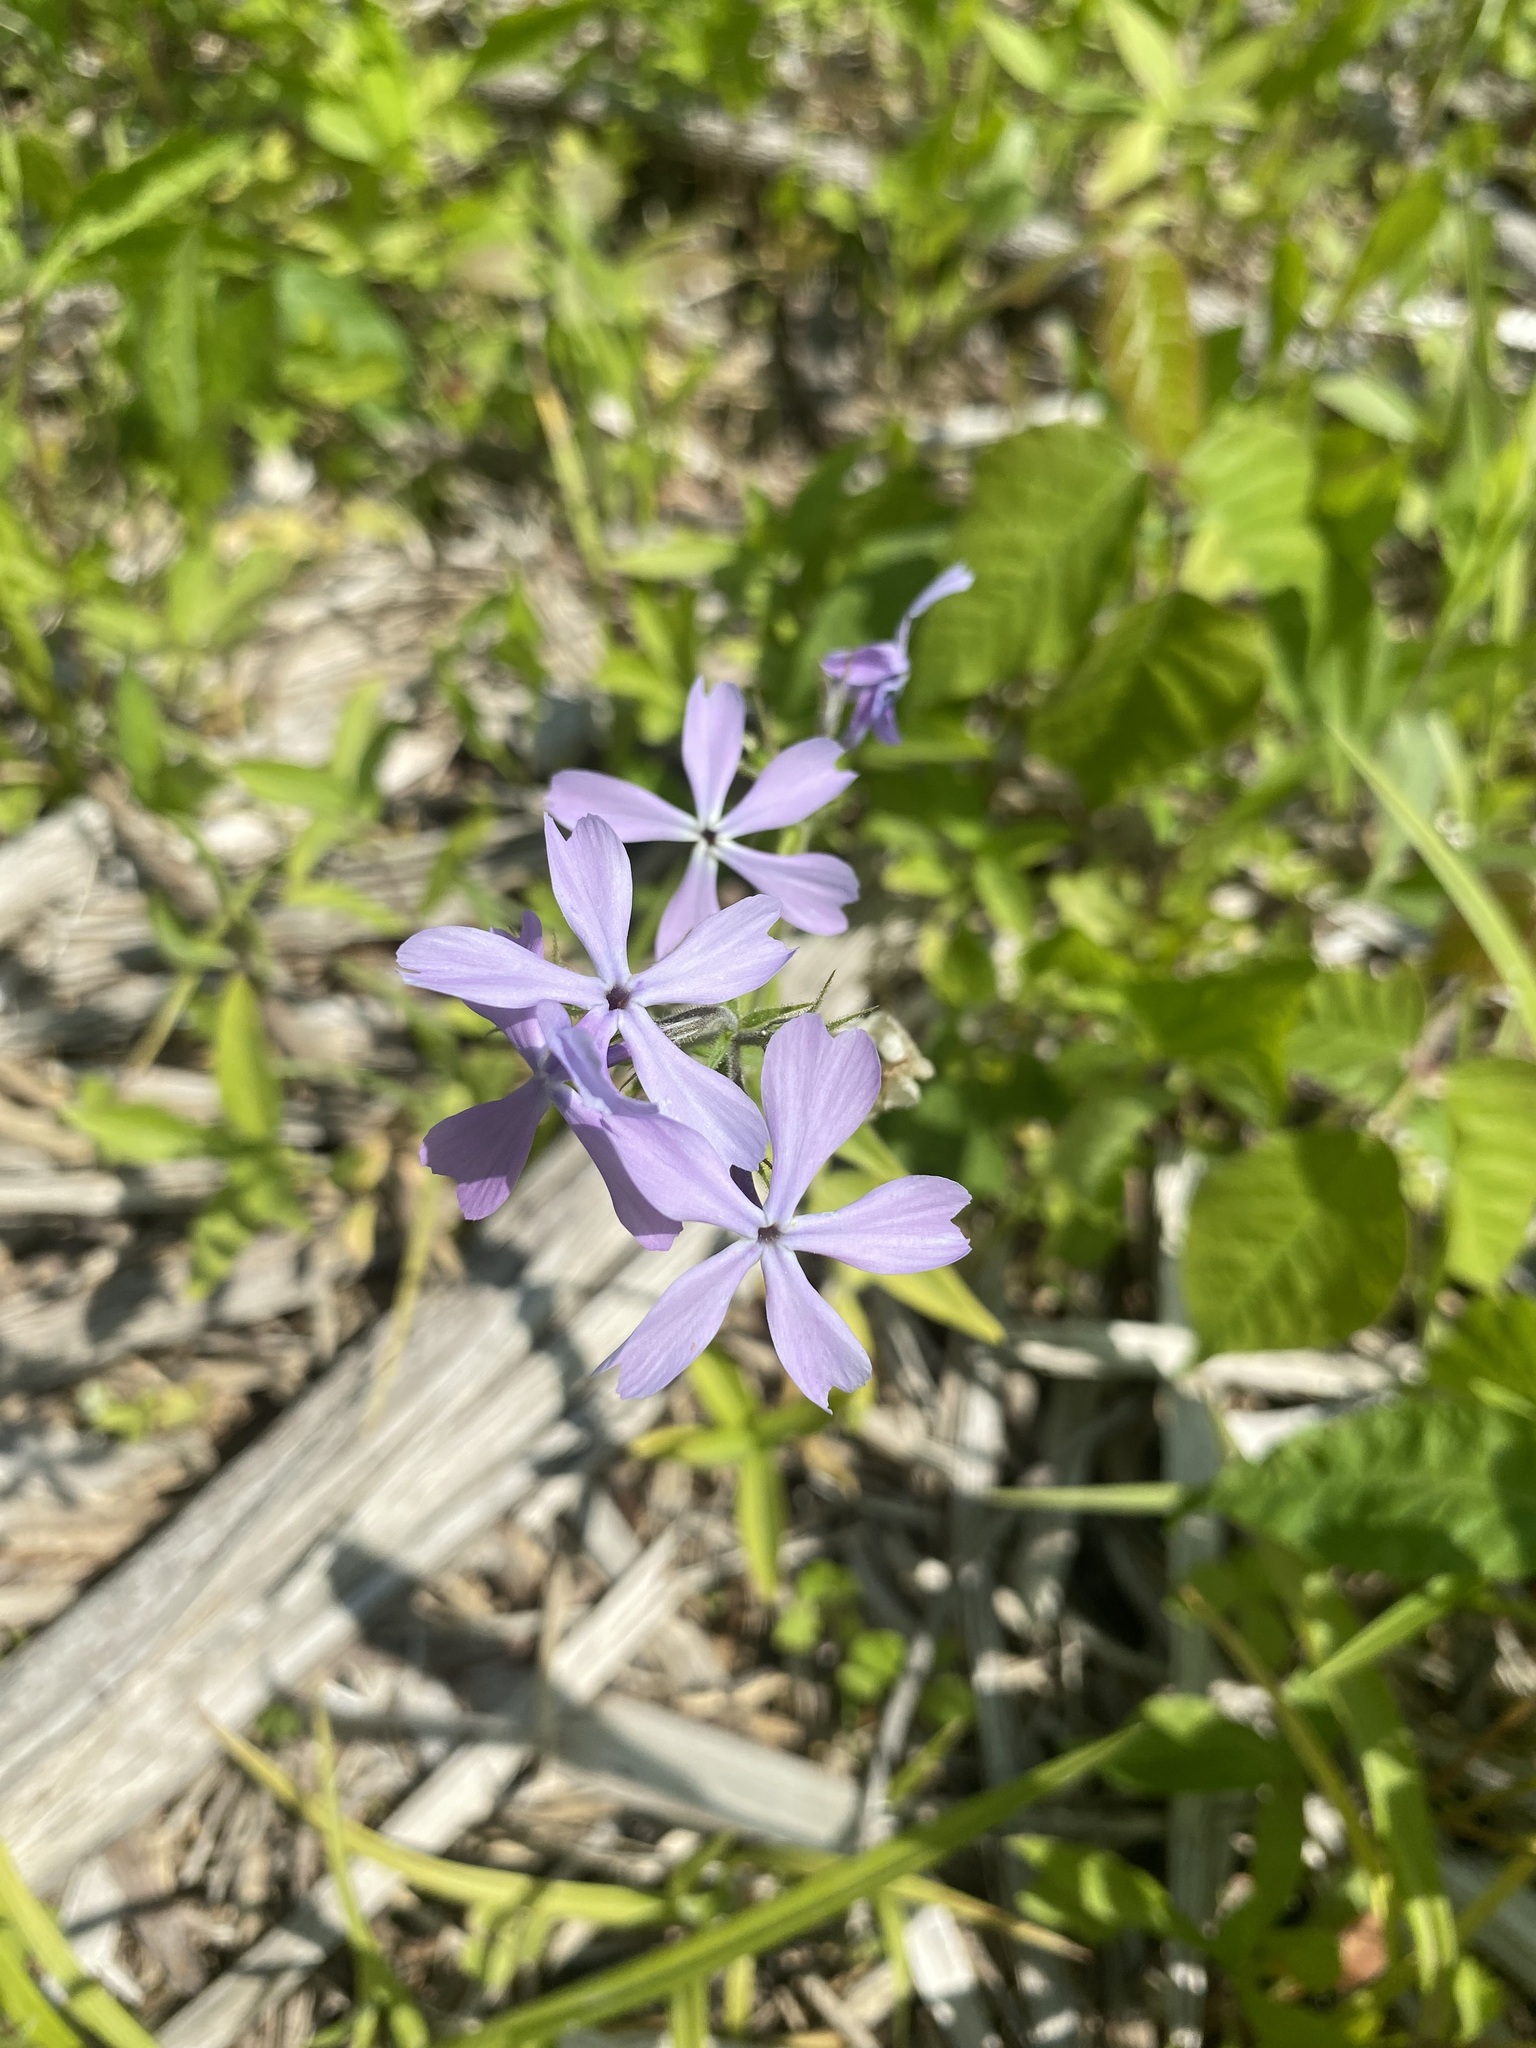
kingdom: Plantae
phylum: Tracheophyta
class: Magnoliopsida
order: Ericales
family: Polemoniaceae
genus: Phlox
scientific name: Phlox divaricata
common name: Blue phlox
